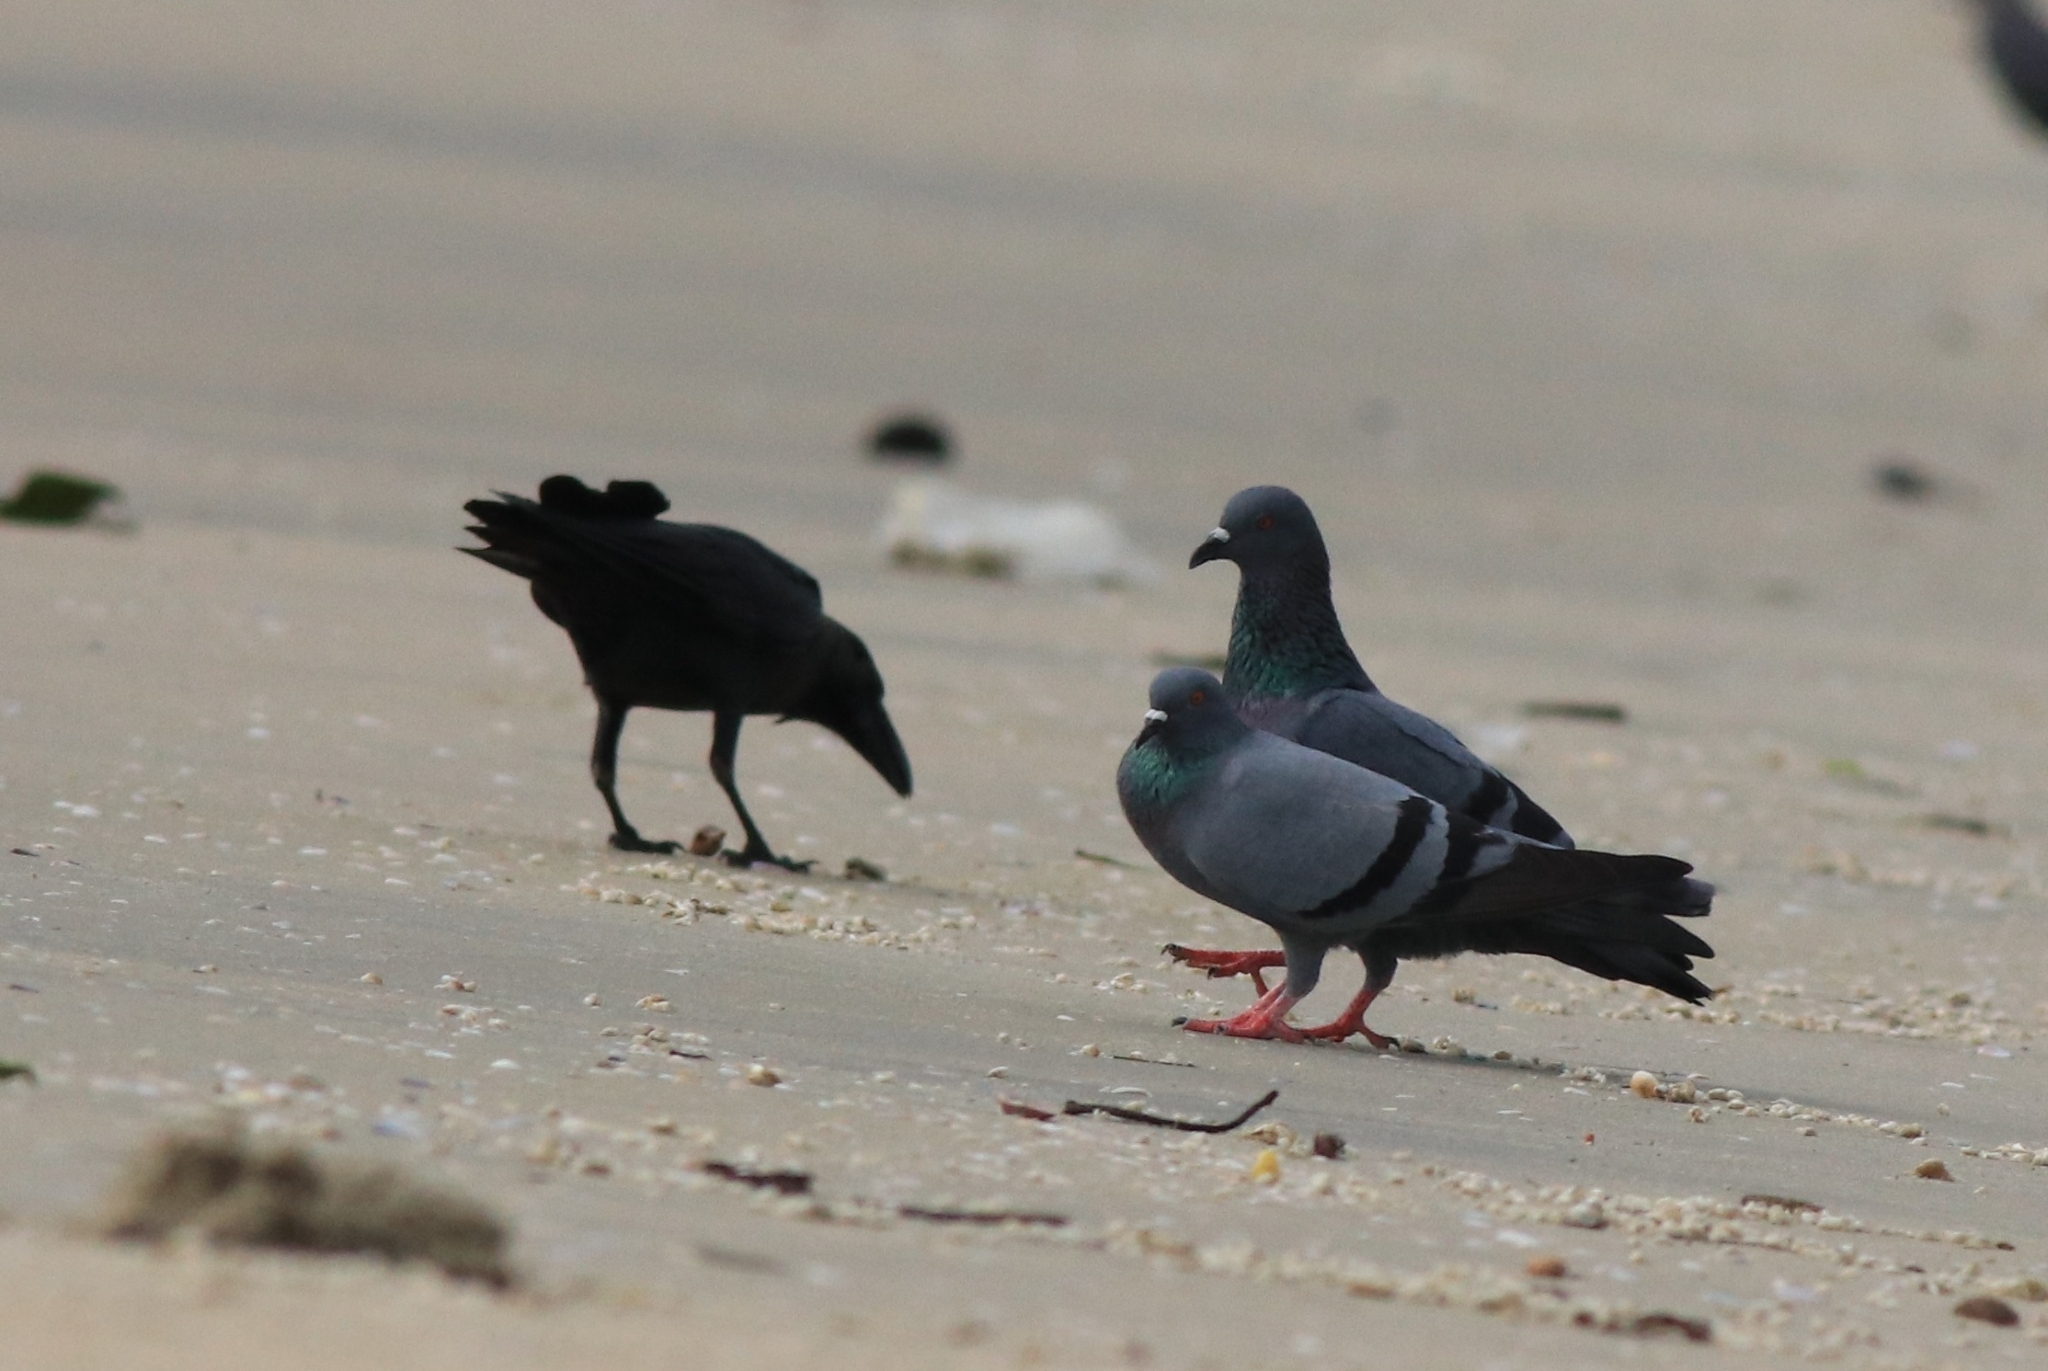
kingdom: Animalia
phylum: Chordata
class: Aves
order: Passeriformes
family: Corvidae
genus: Corvus
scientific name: Corvus splendens
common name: House crow
